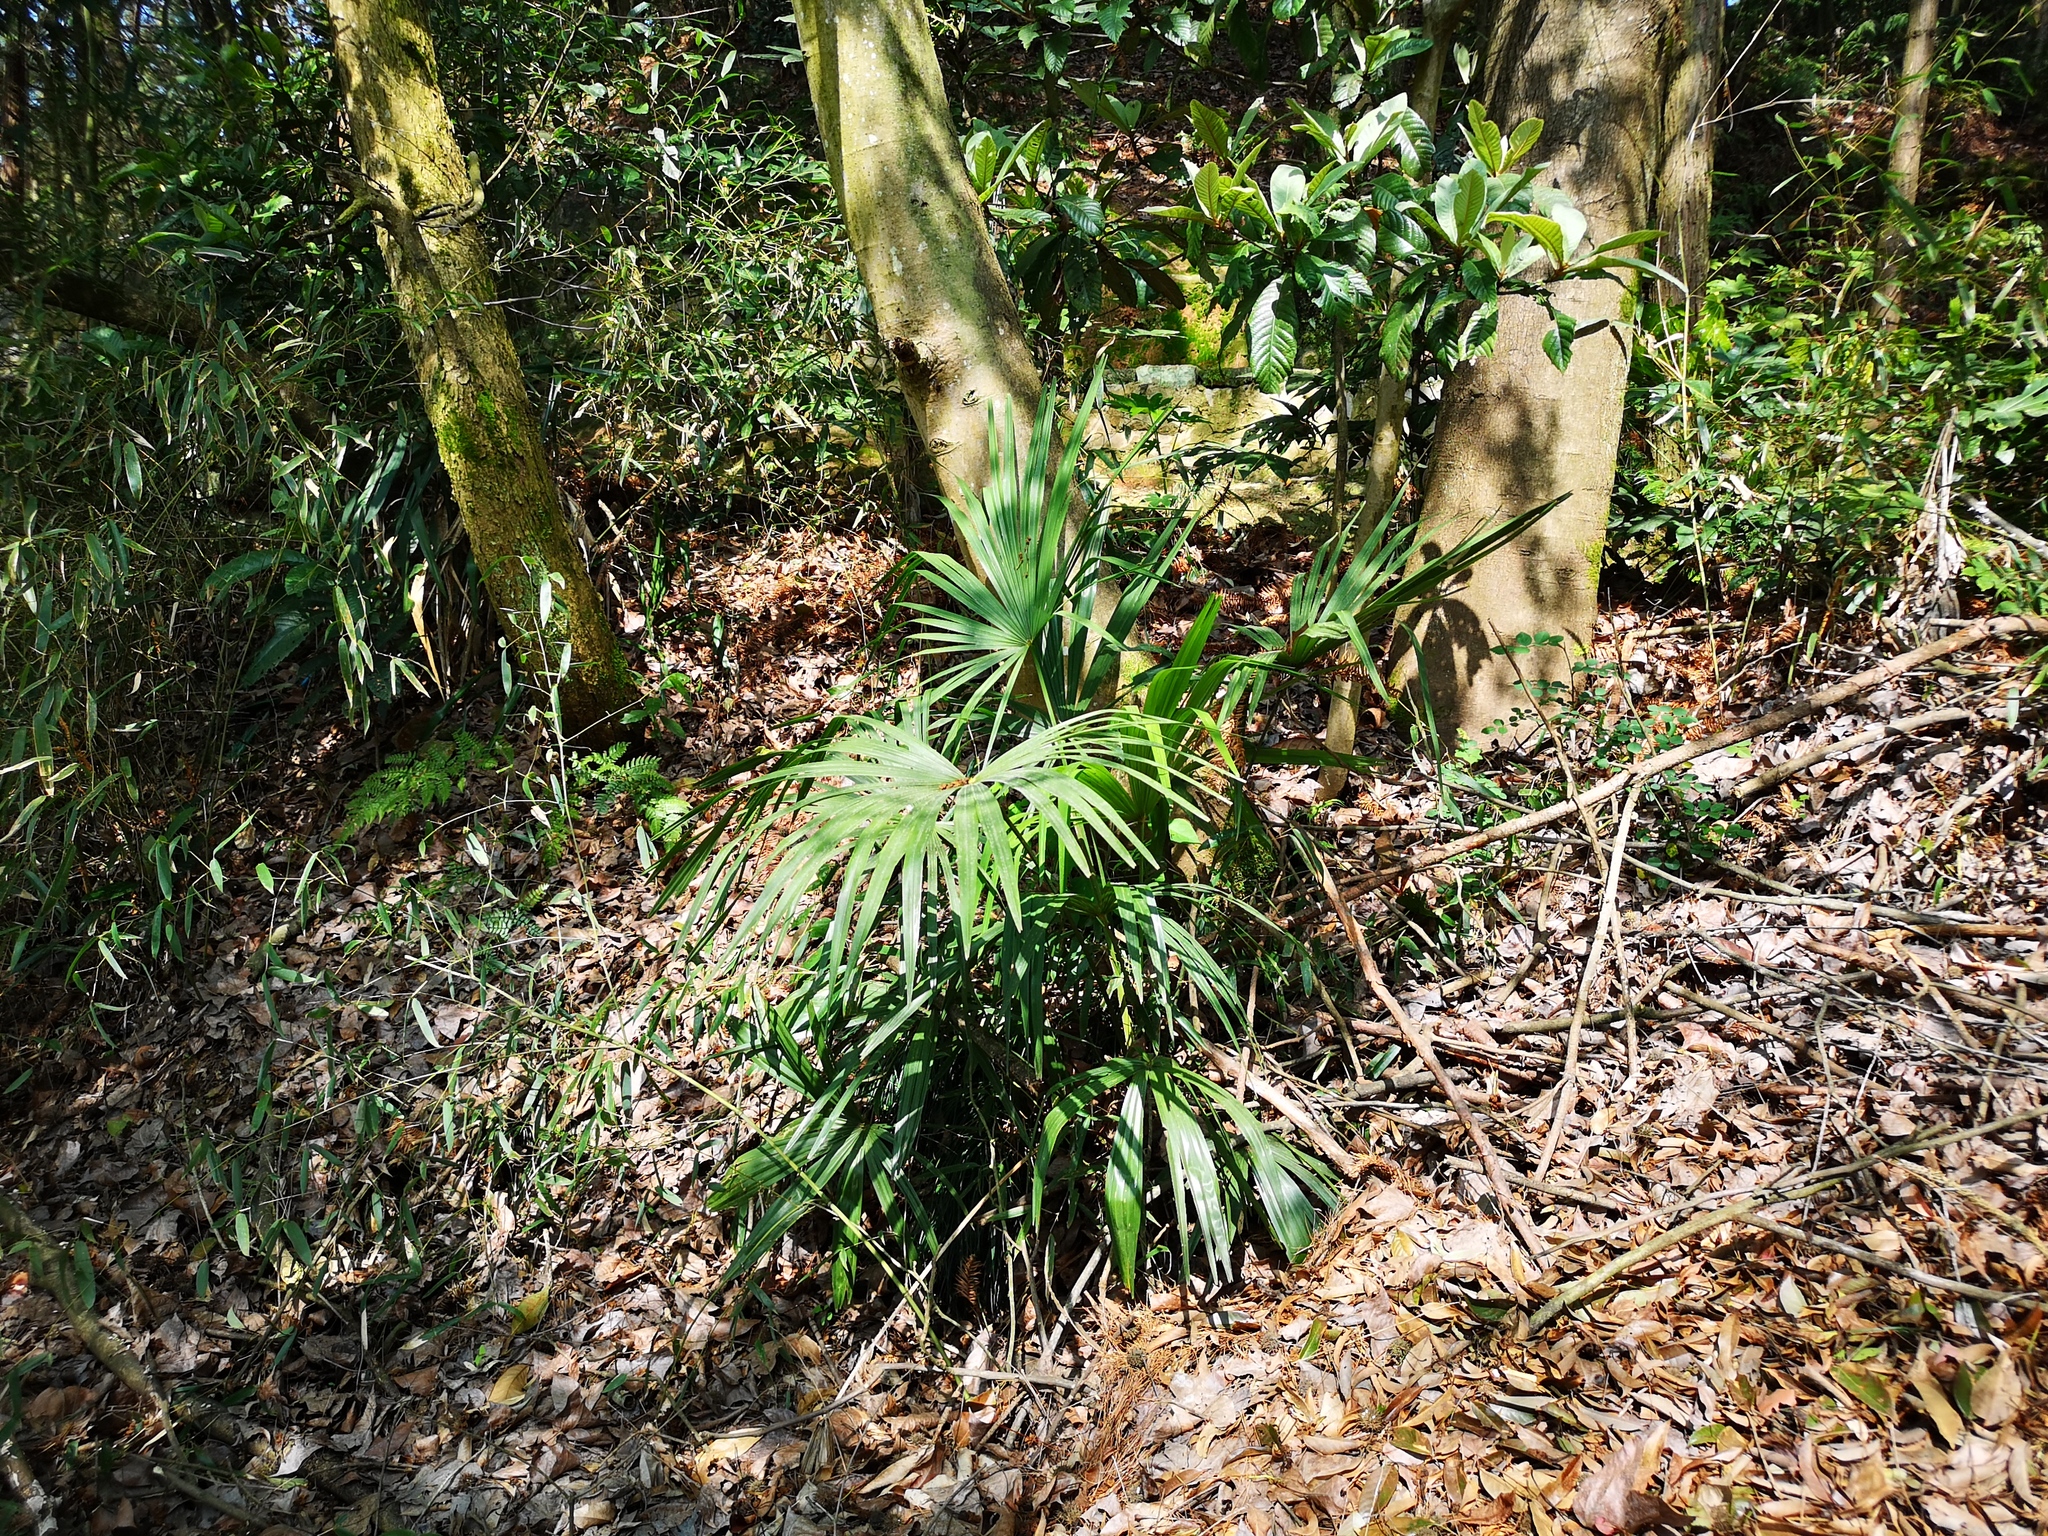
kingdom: Plantae
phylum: Tracheophyta
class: Liliopsida
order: Arecales
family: Arecaceae
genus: Trachycarpus
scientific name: Trachycarpus fortunei
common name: Chusan palm
